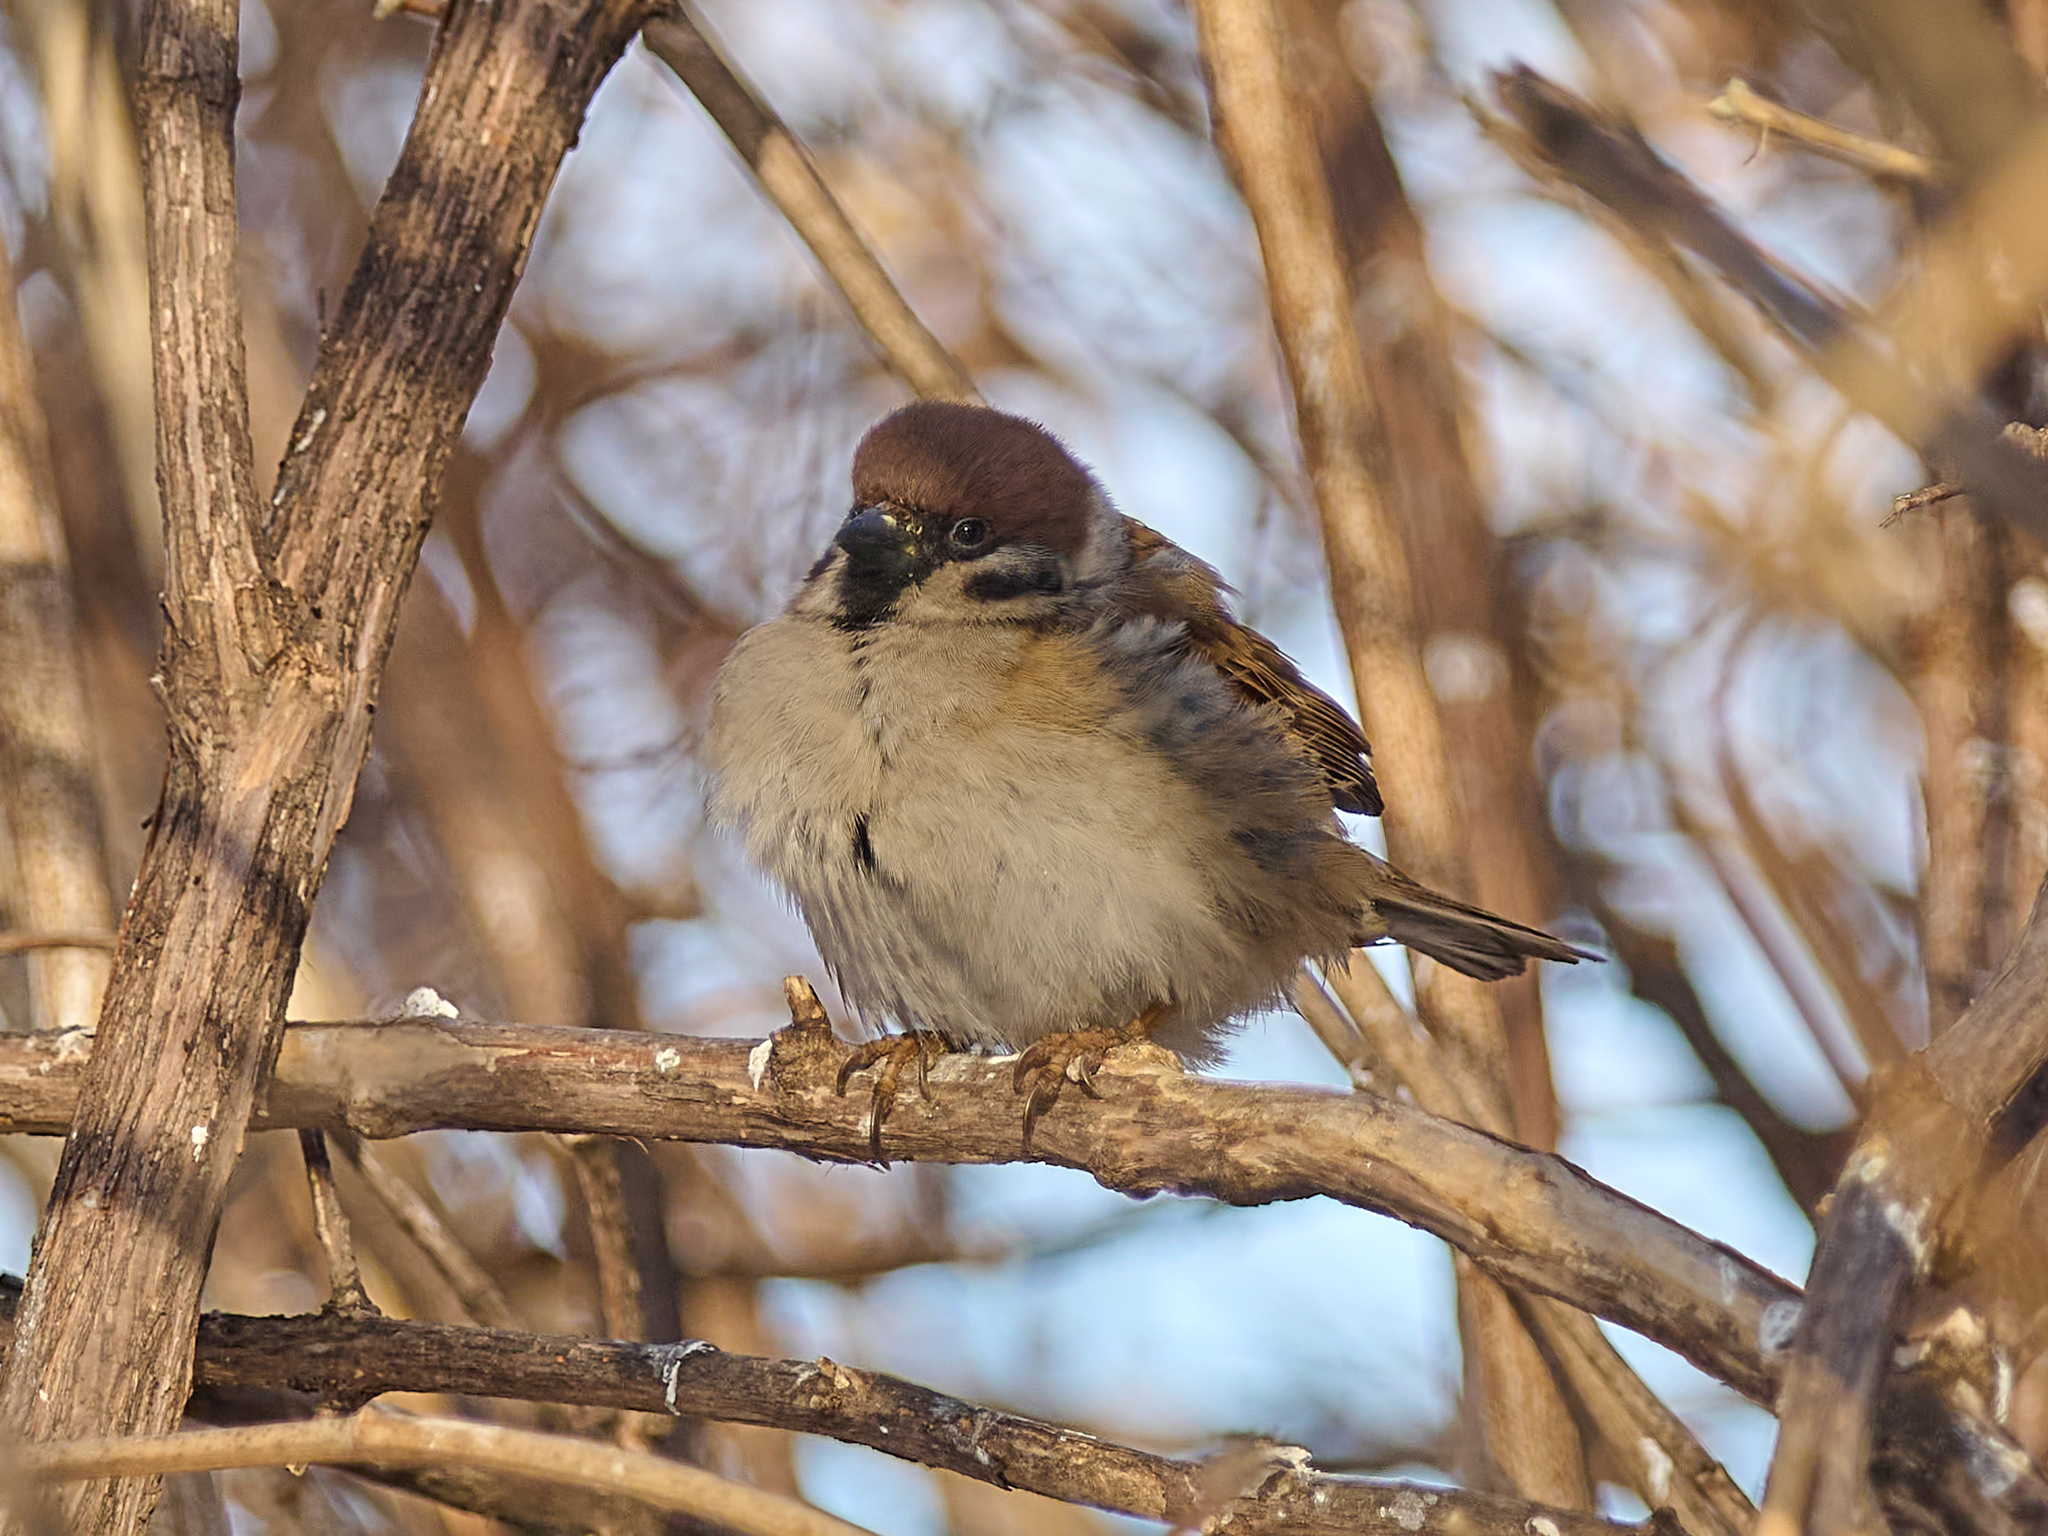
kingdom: Animalia
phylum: Chordata
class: Aves
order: Passeriformes
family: Passeridae
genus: Passer
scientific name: Passer montanus
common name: Eurasian tree sparrow
